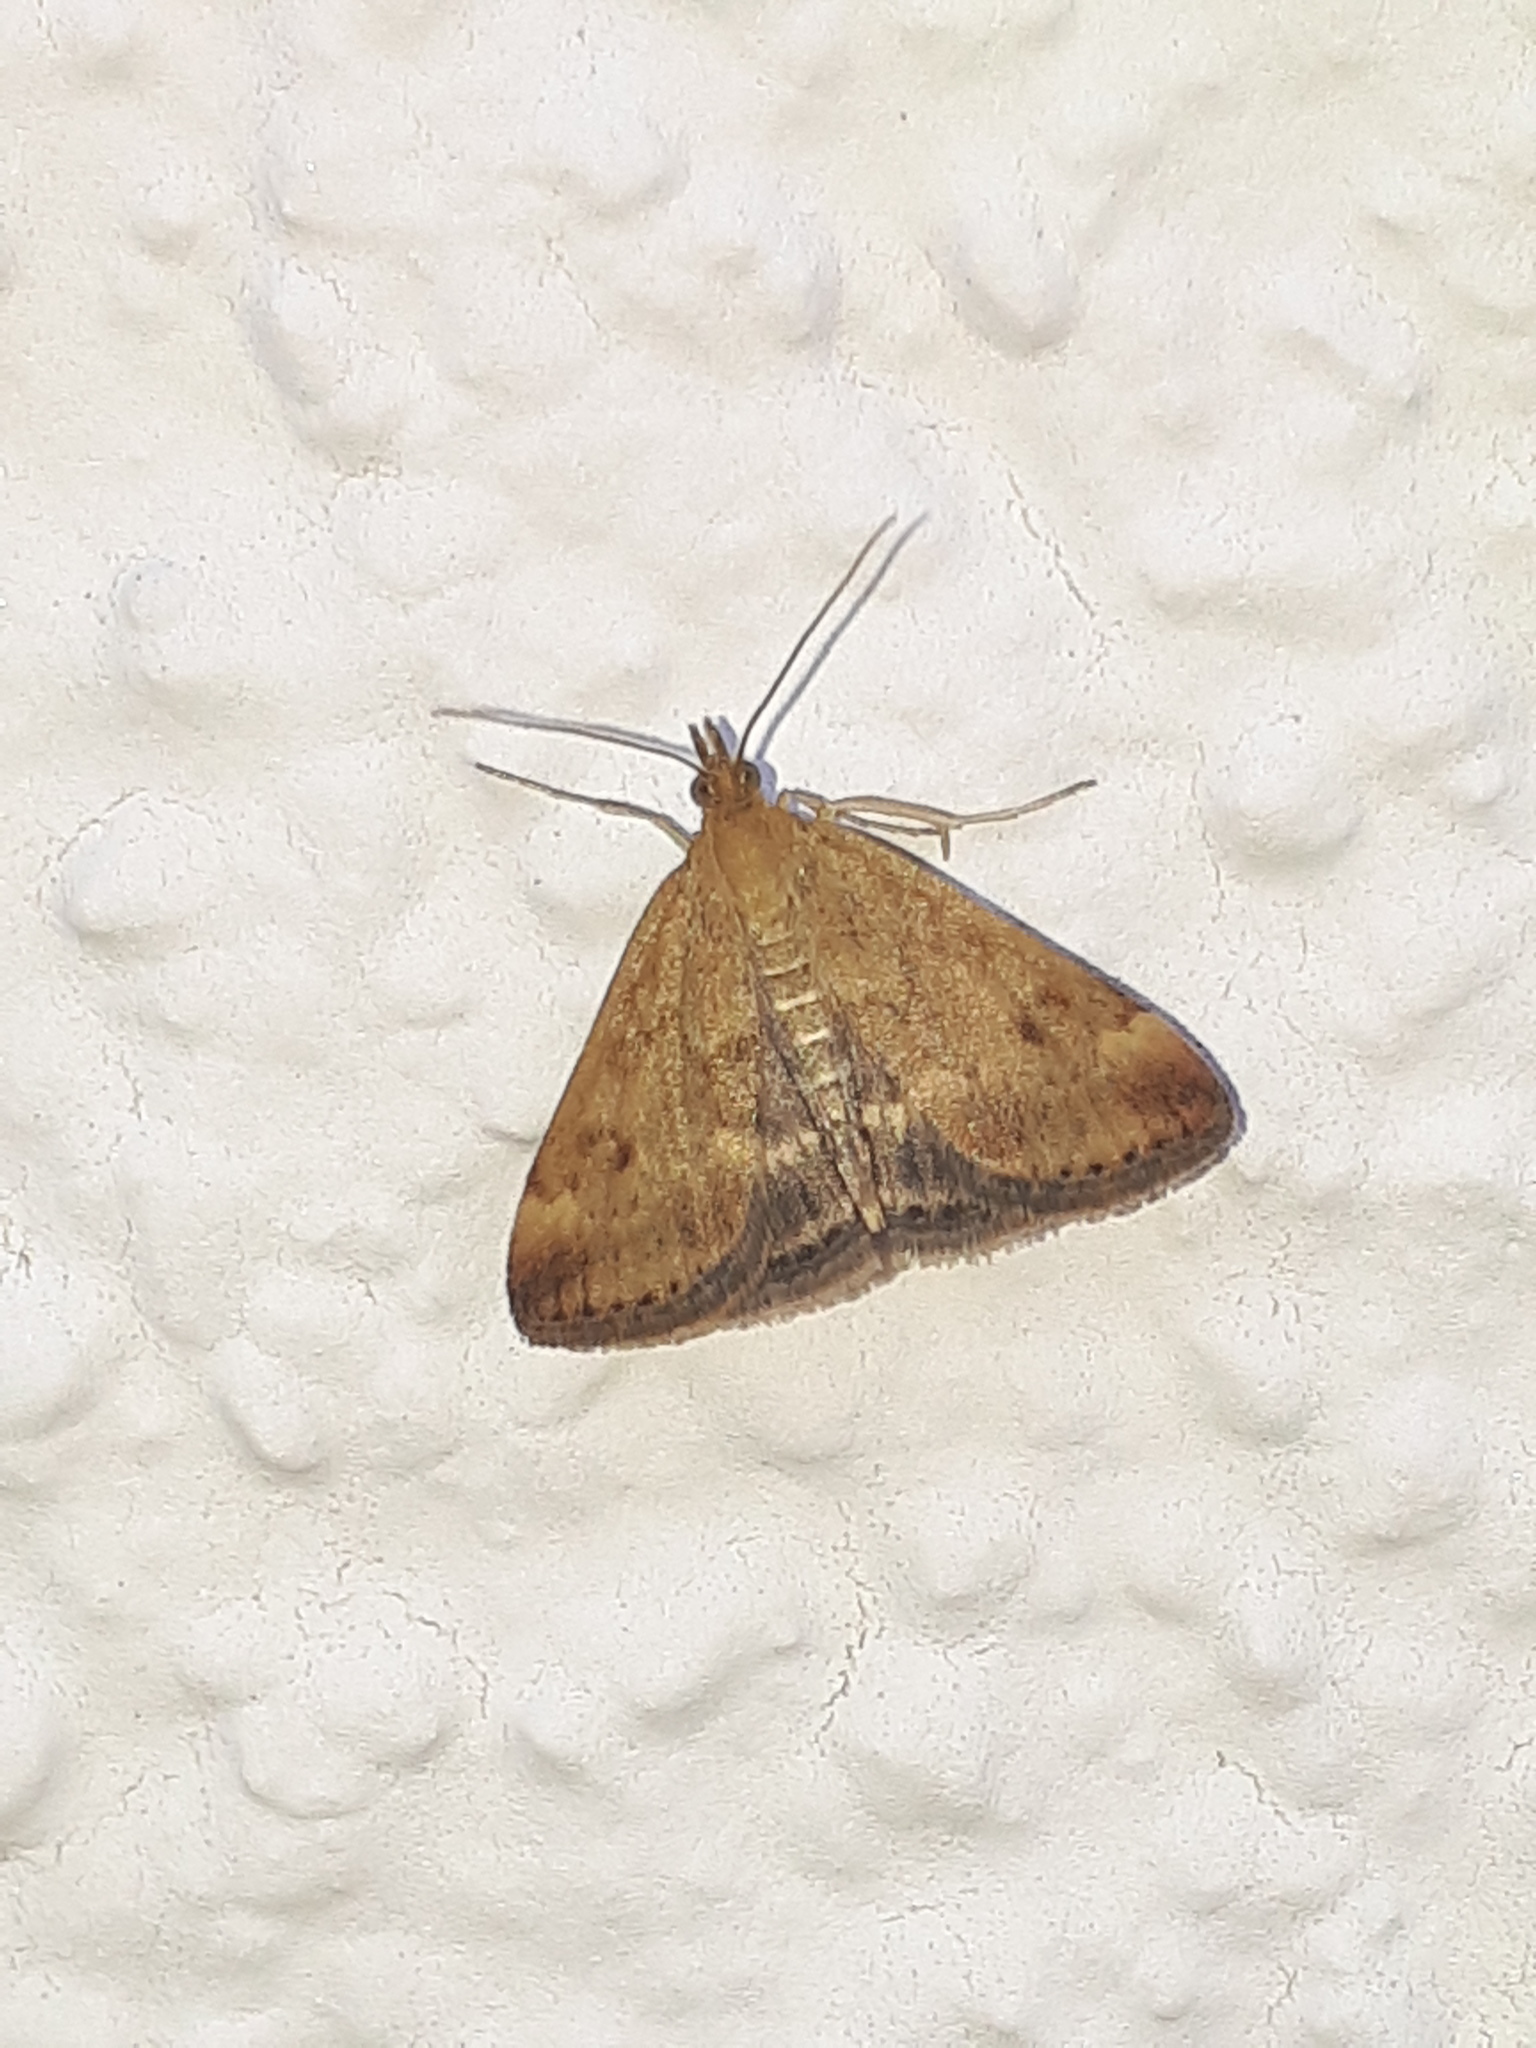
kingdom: Animalia
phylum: Arthropoda
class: Insecta
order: Lepidoptera
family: Crambidae
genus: Pyrausta
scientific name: Pyrausta despicata
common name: Straw-barred pearl
